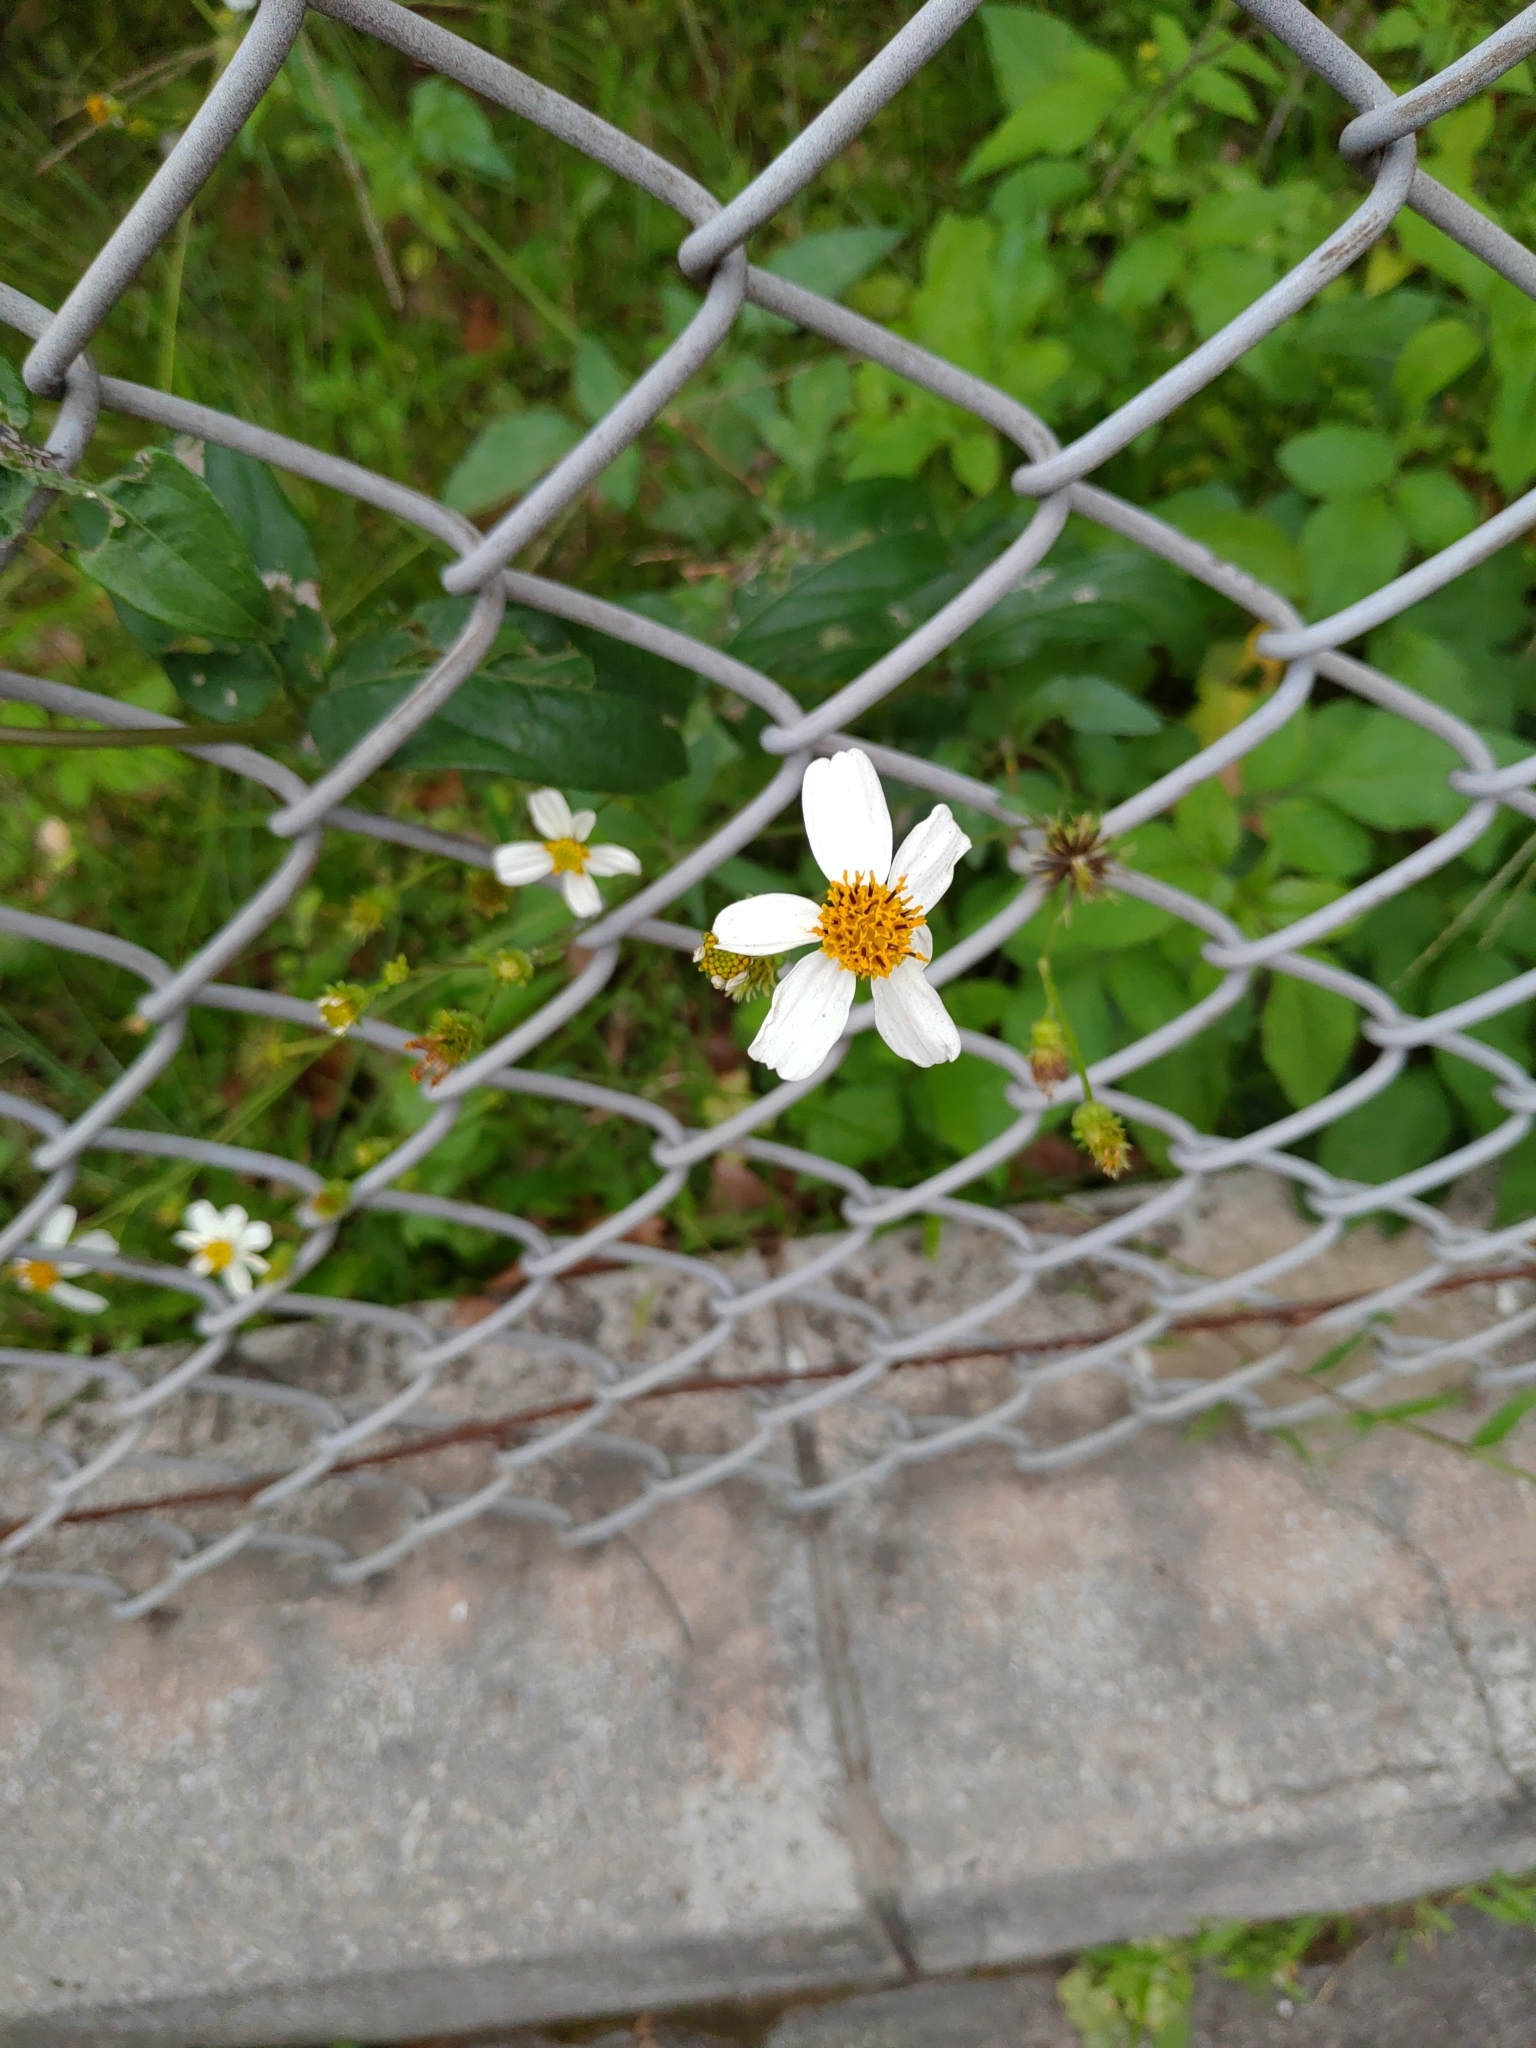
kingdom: Plantae
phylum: Tracheophyta
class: Magnoliopsida
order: Asterales
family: Asteraceae
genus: Bidens
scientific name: Bidens alba
